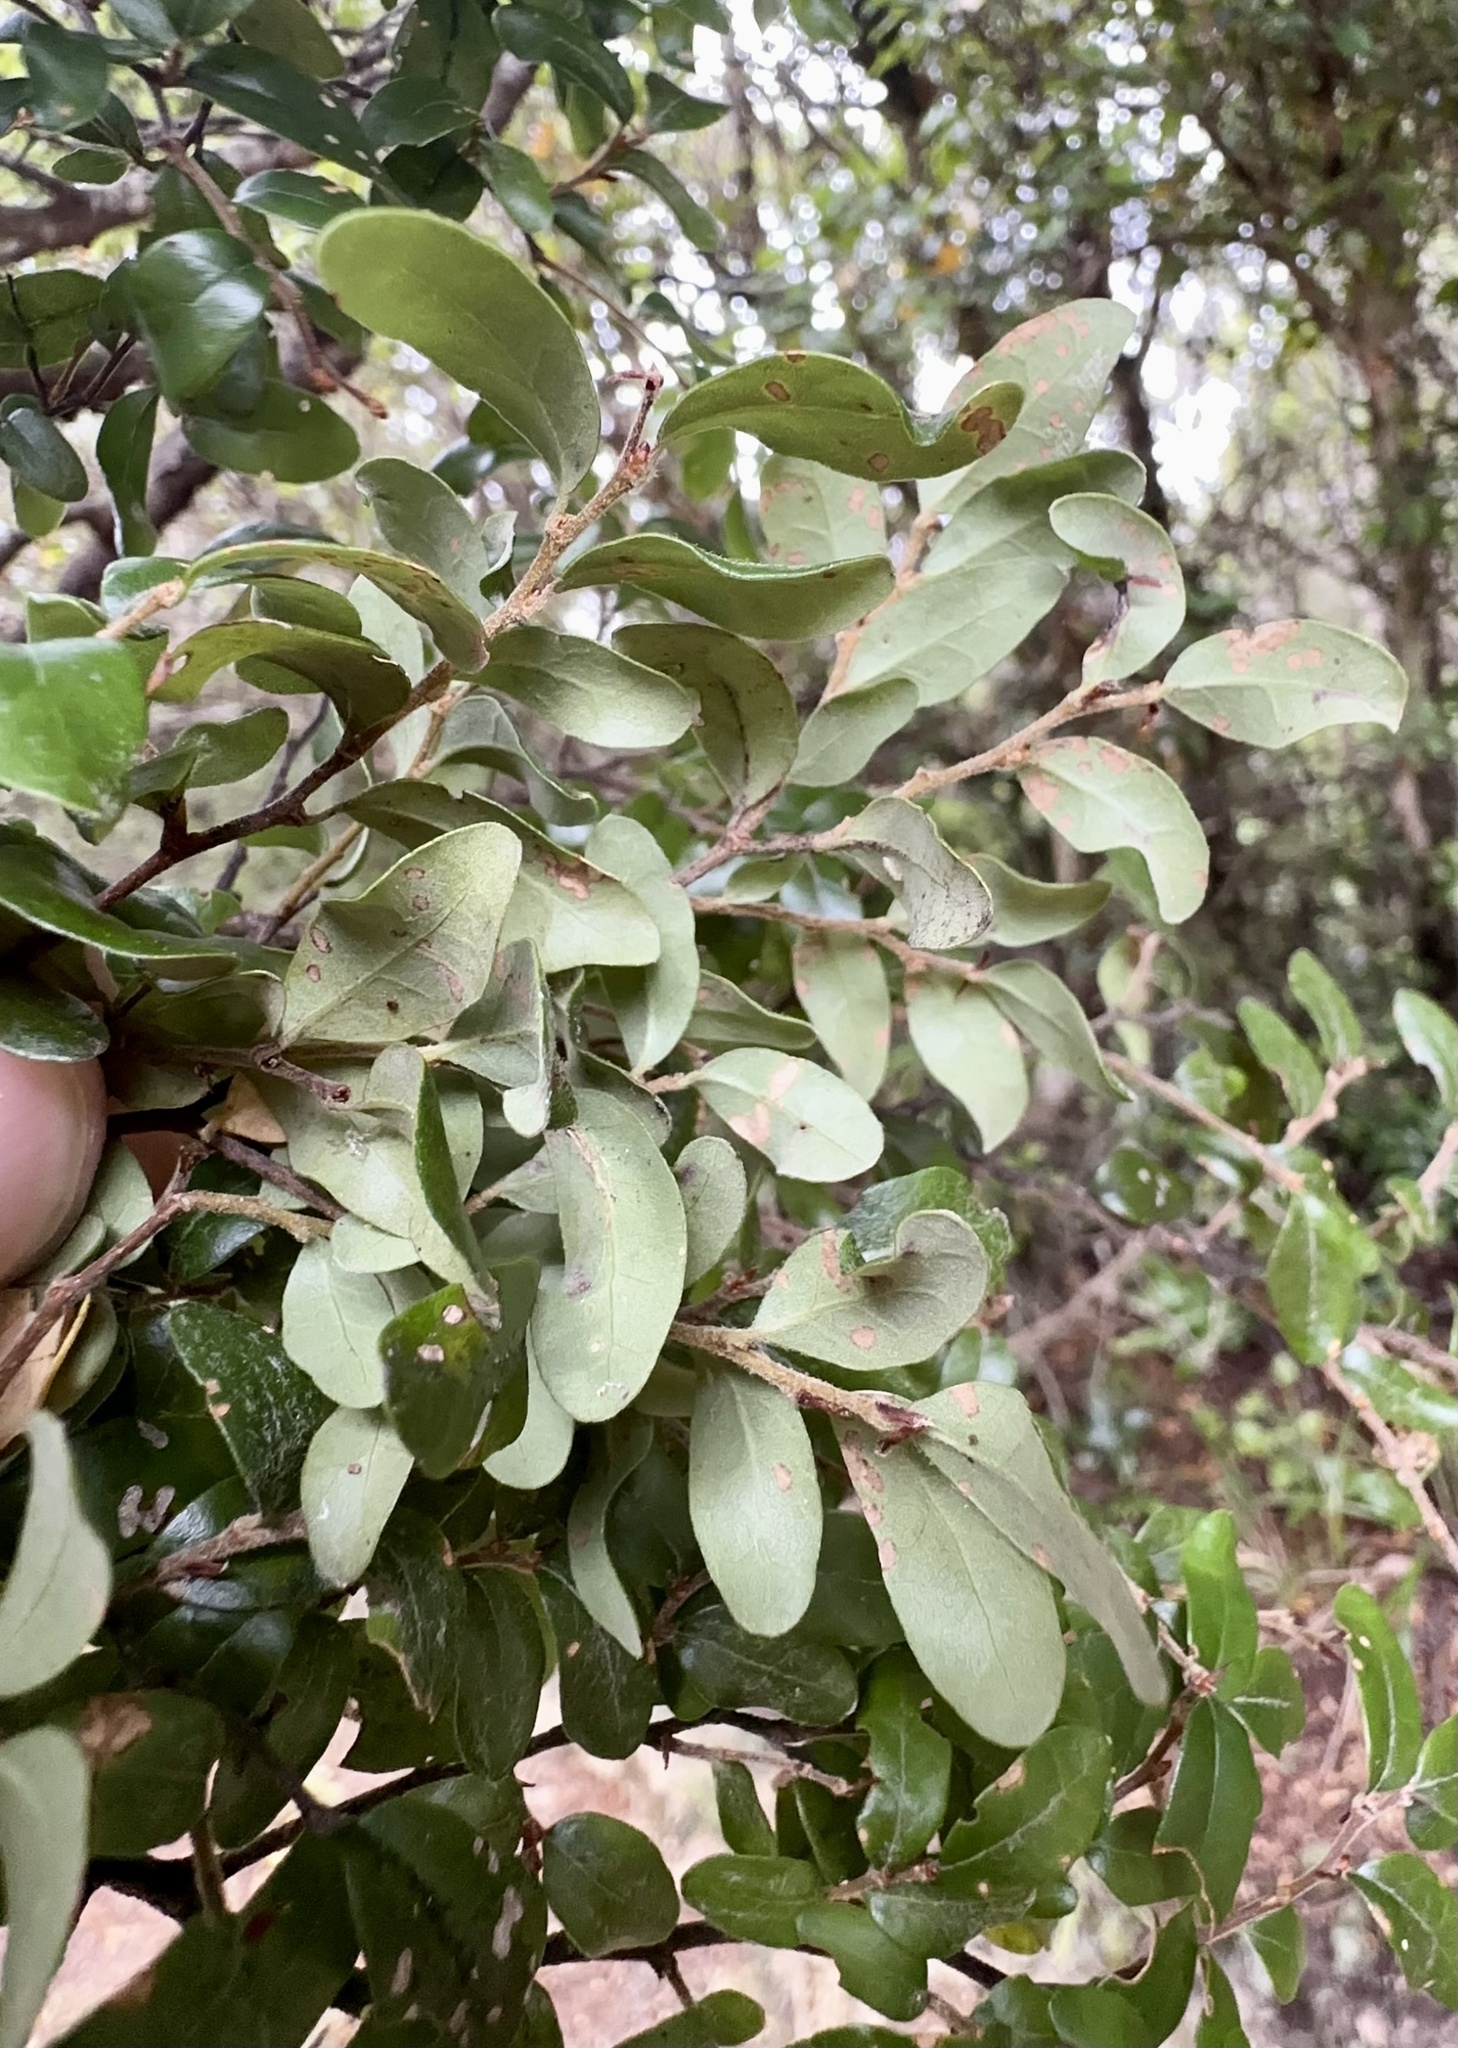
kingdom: Plantae
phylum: Tracheophyta
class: Magnoliopsida
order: Fagales
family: Nothofagaceae
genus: Nothofagus
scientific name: Nothofagus solandri
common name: Black beech
